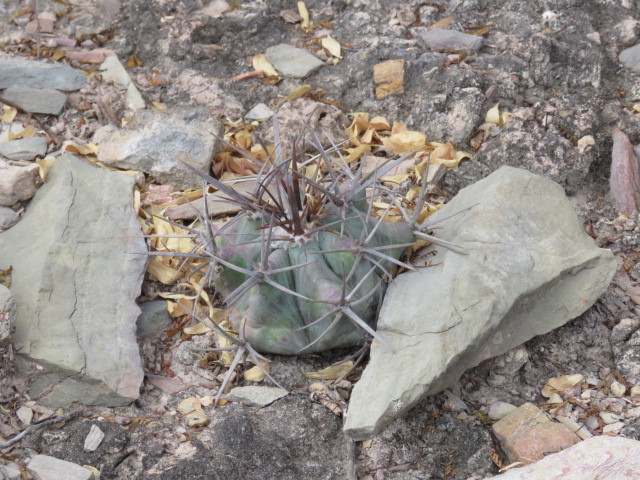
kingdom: Plantae
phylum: Tracheophyta
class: Magnoliopsida
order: Caryophyllales
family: Cactaceae
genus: Echinocactus
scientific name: Echinocactus platyacanthus
